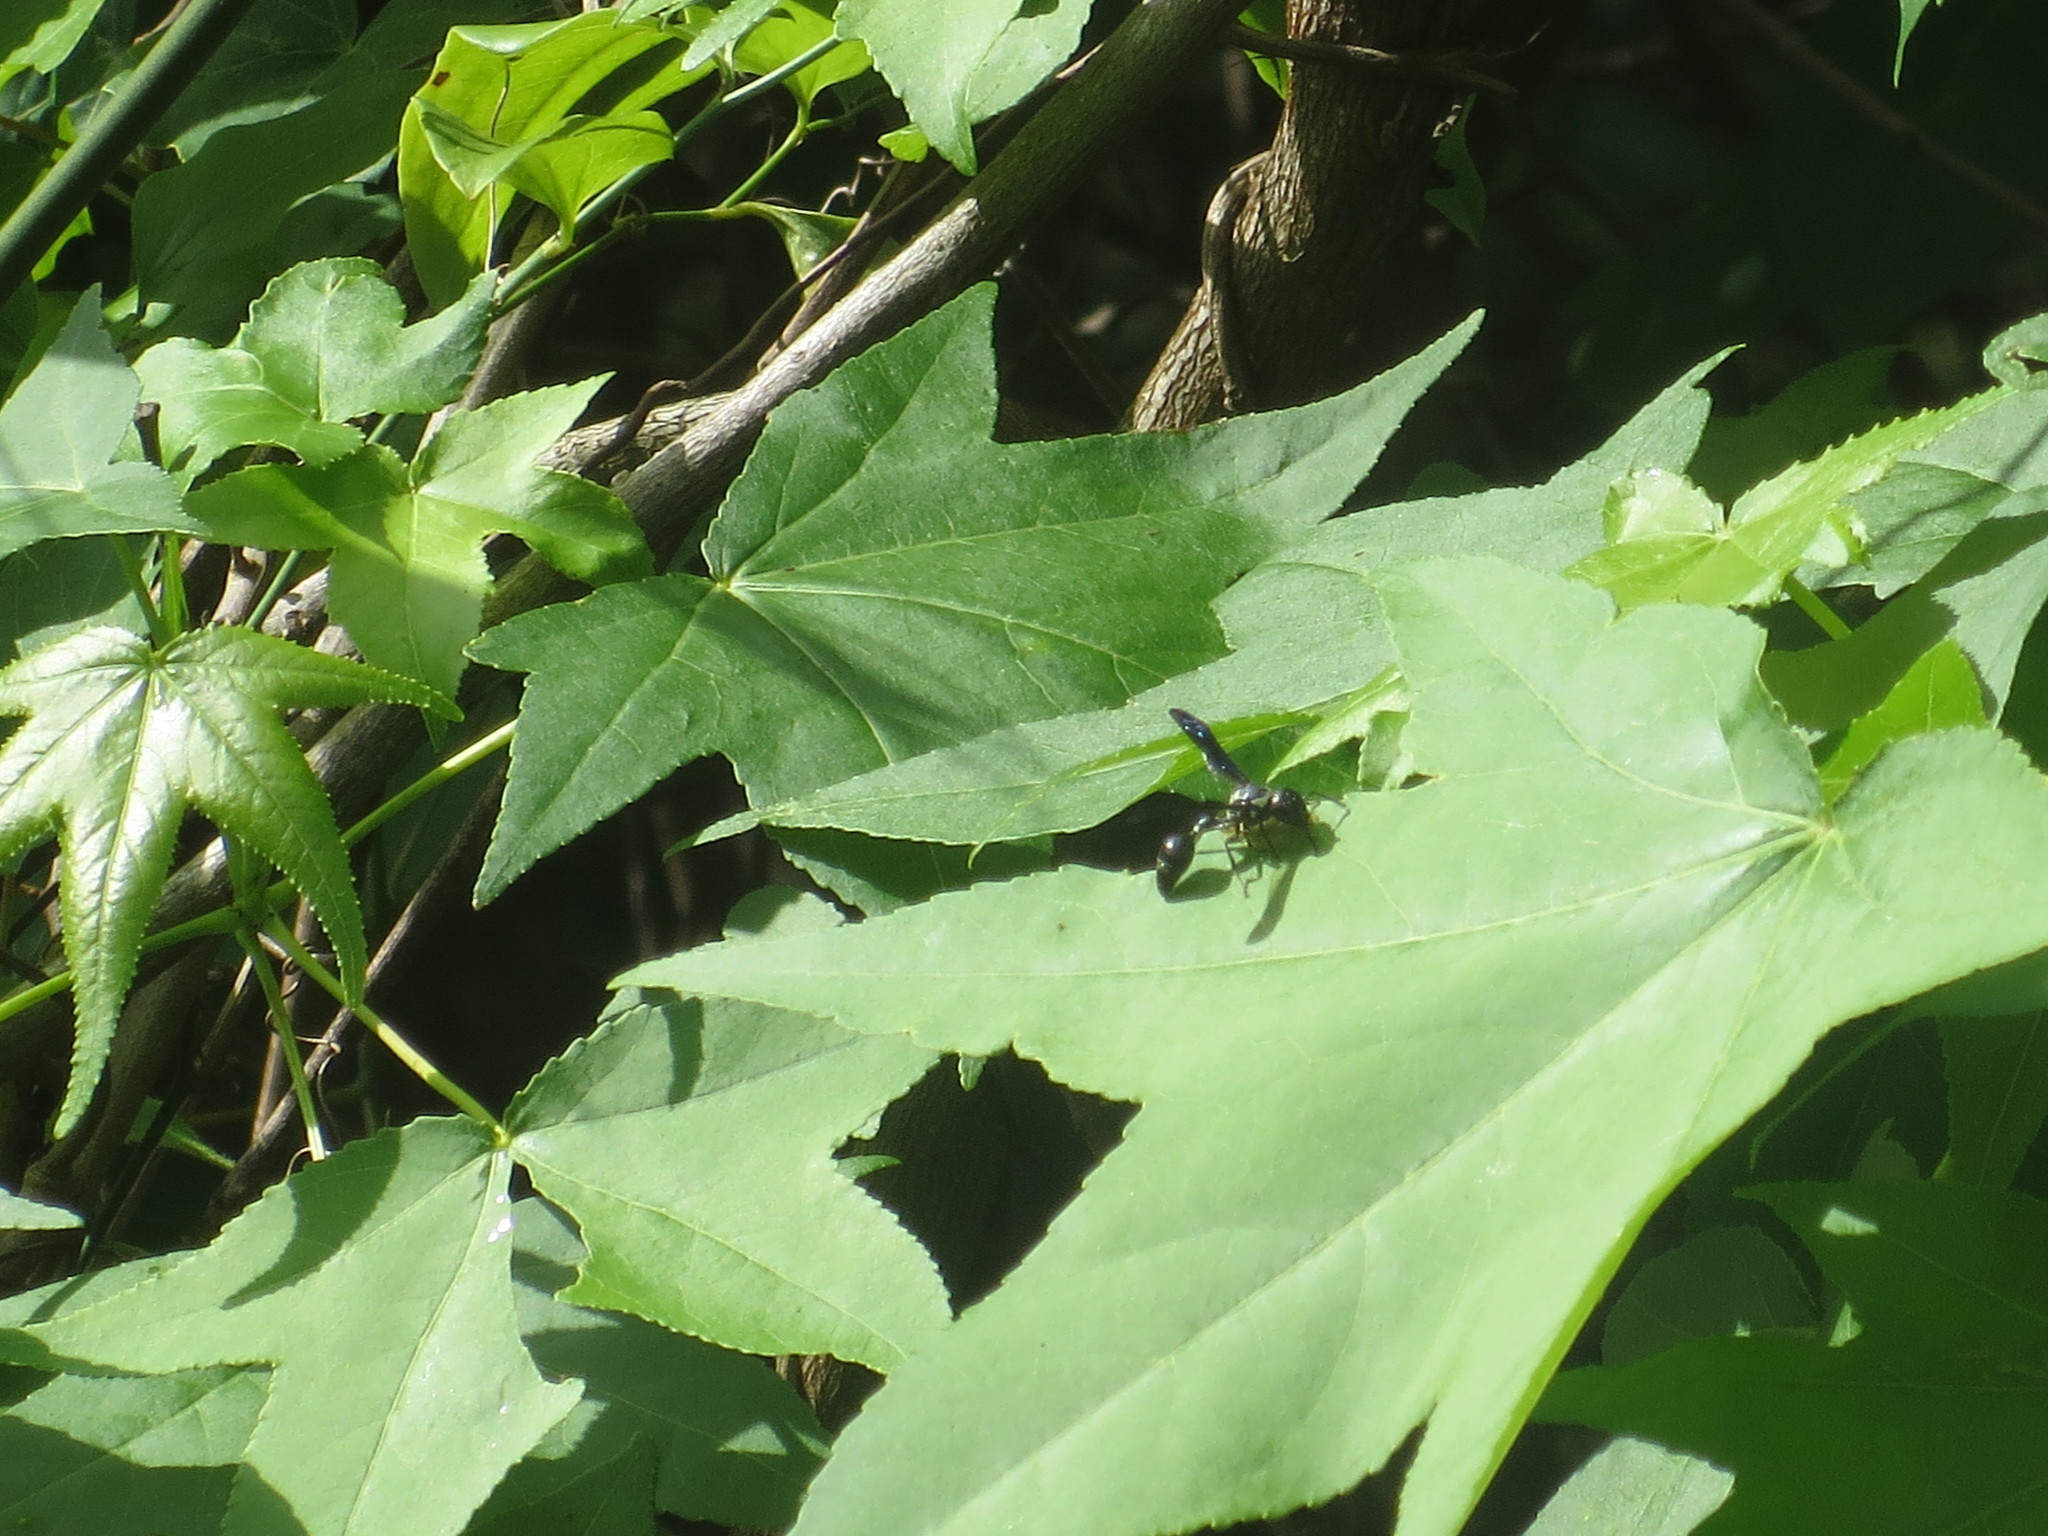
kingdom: Animalia
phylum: Arthropoda
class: Insecta
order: Hymenoptera
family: Eumenidae
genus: Zethus
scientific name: Zethus spinipes
